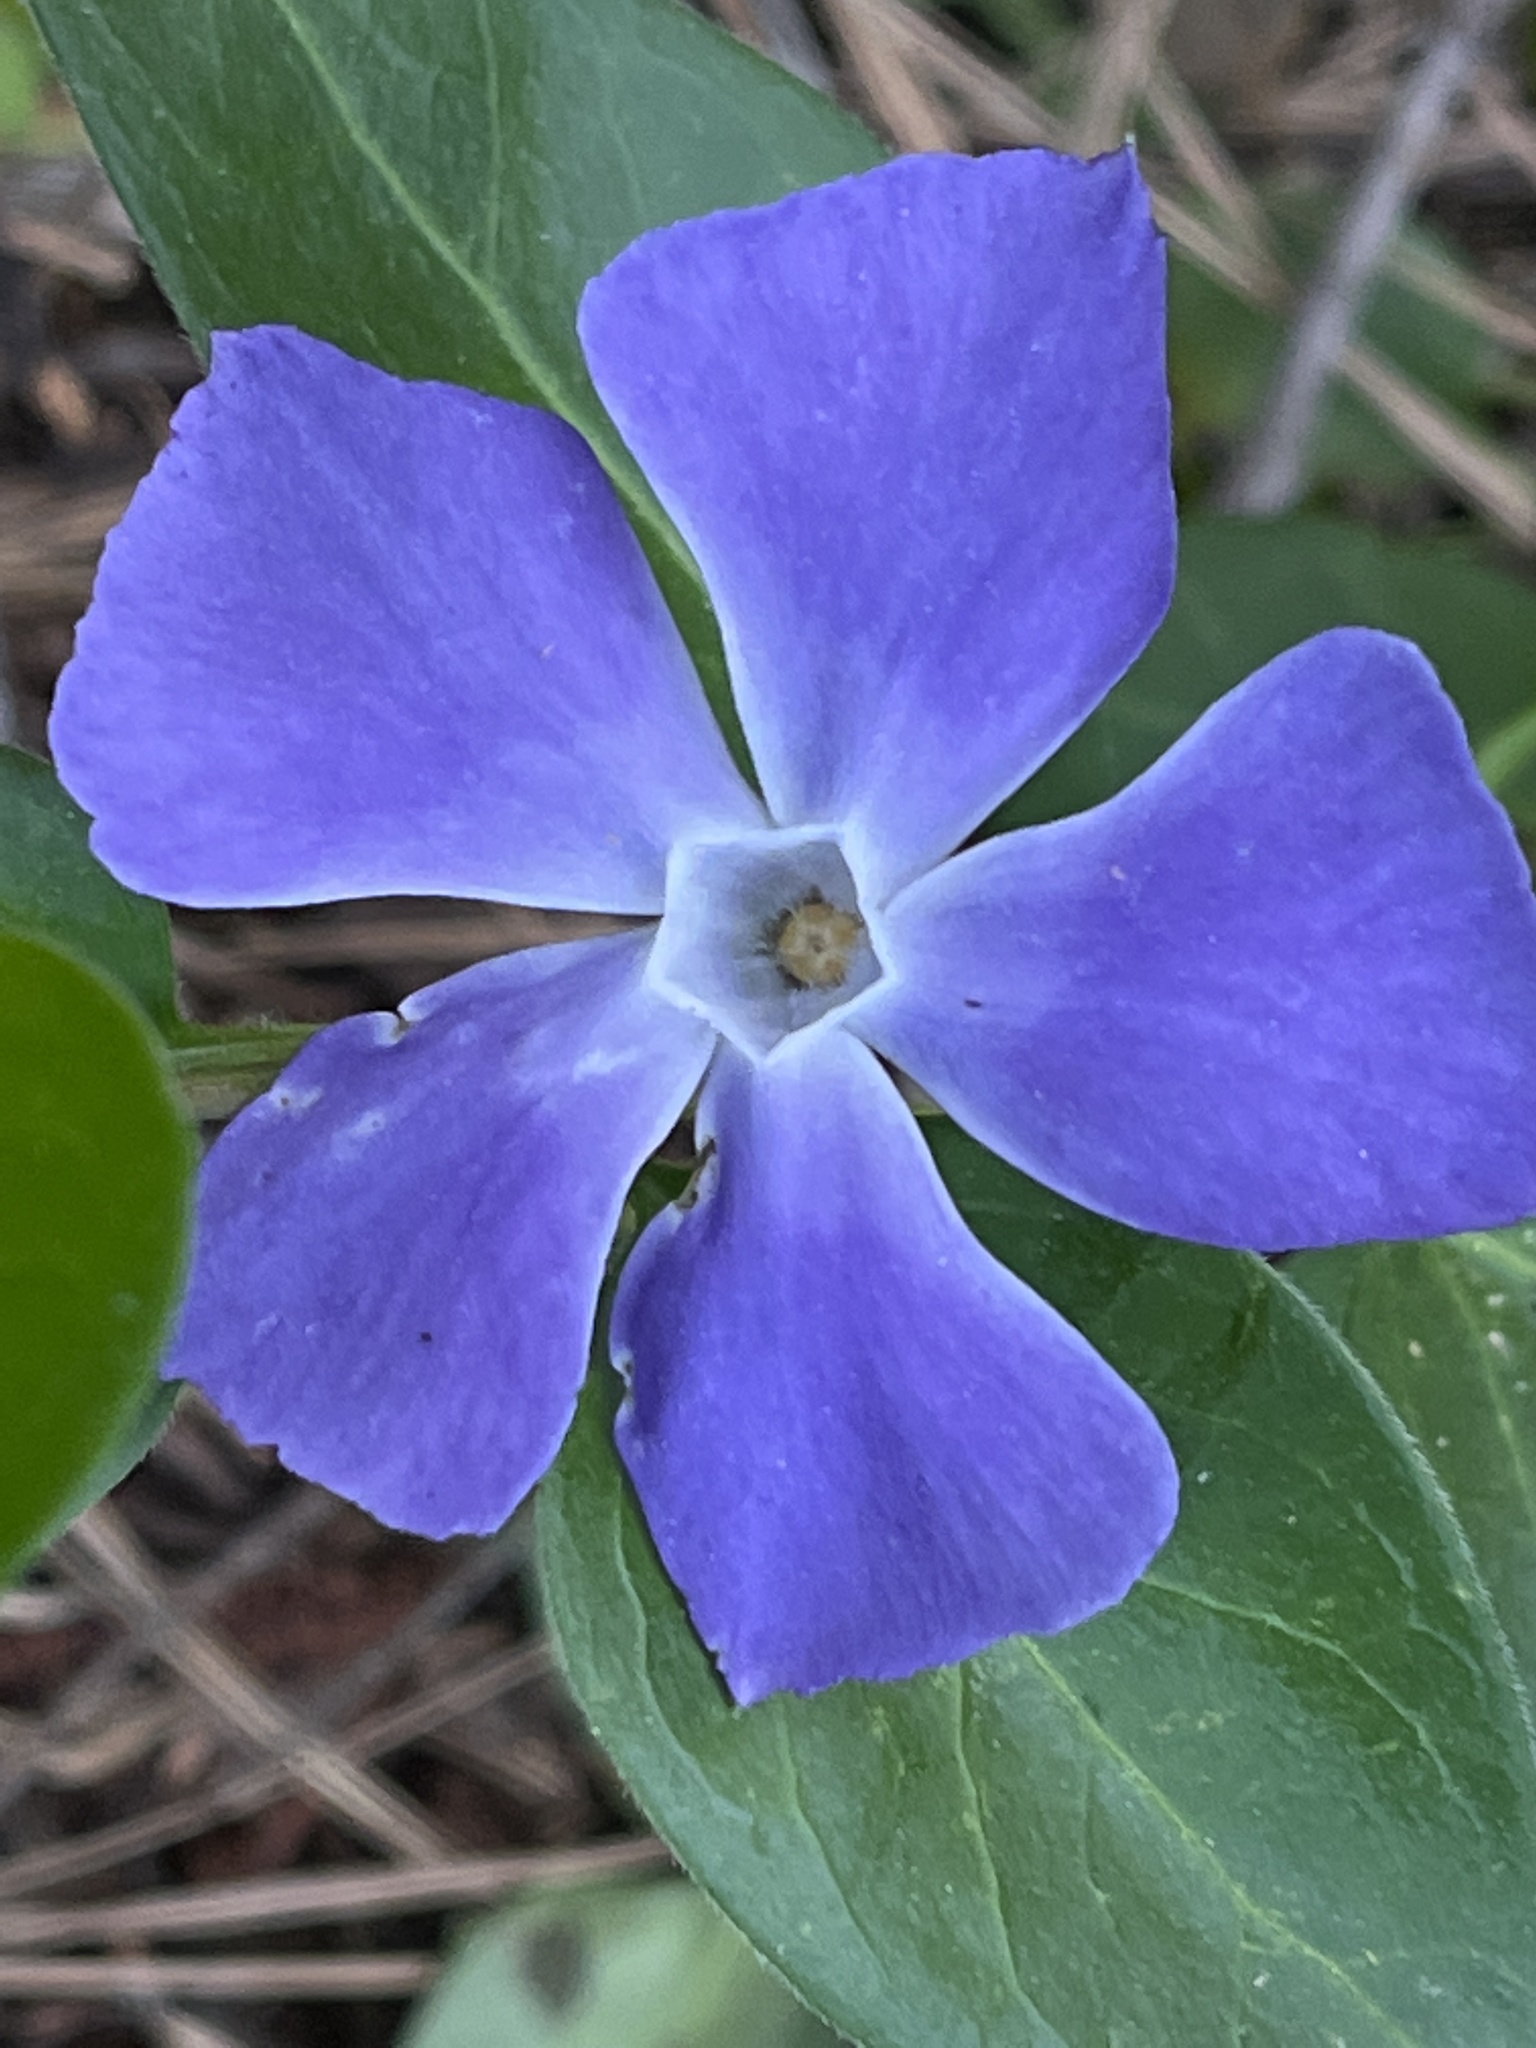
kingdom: Plantae
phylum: Tracheophyta
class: Magnoliopsida
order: Gentianales
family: Apocynaceae
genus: Vinca
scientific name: Vinca major
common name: Greater periwinkle
